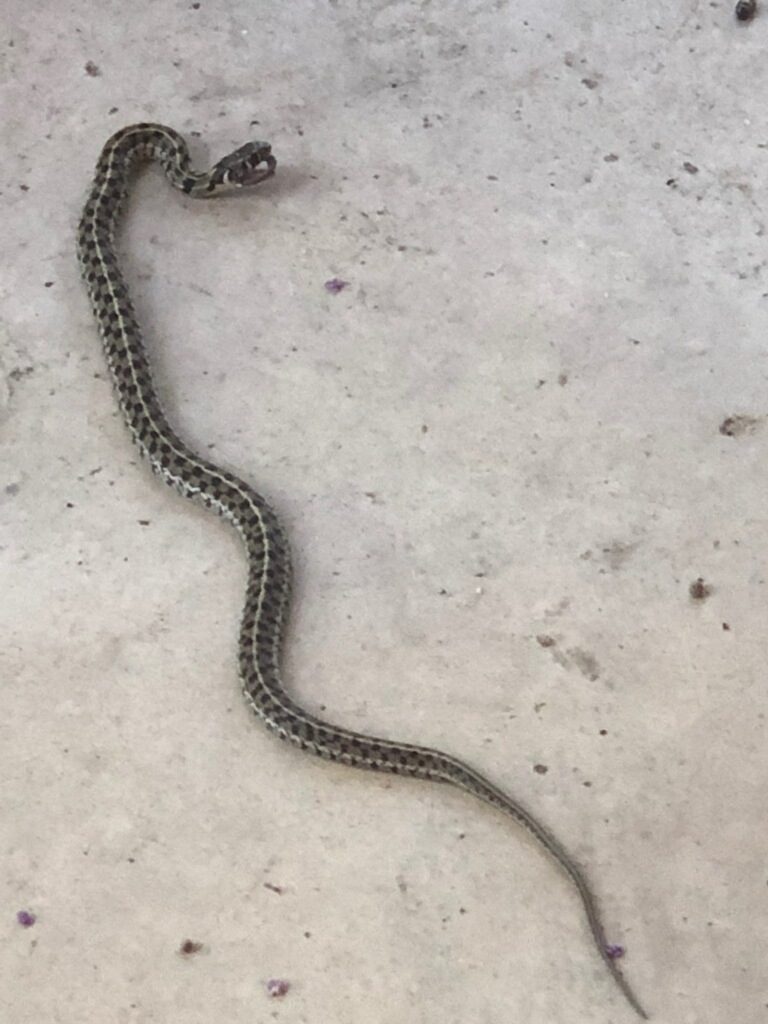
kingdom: Animalia
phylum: Chordata
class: Squamata
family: Colubridae
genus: Thamnophis
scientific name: Thamnophis marcianus
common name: Checkered garter snake
